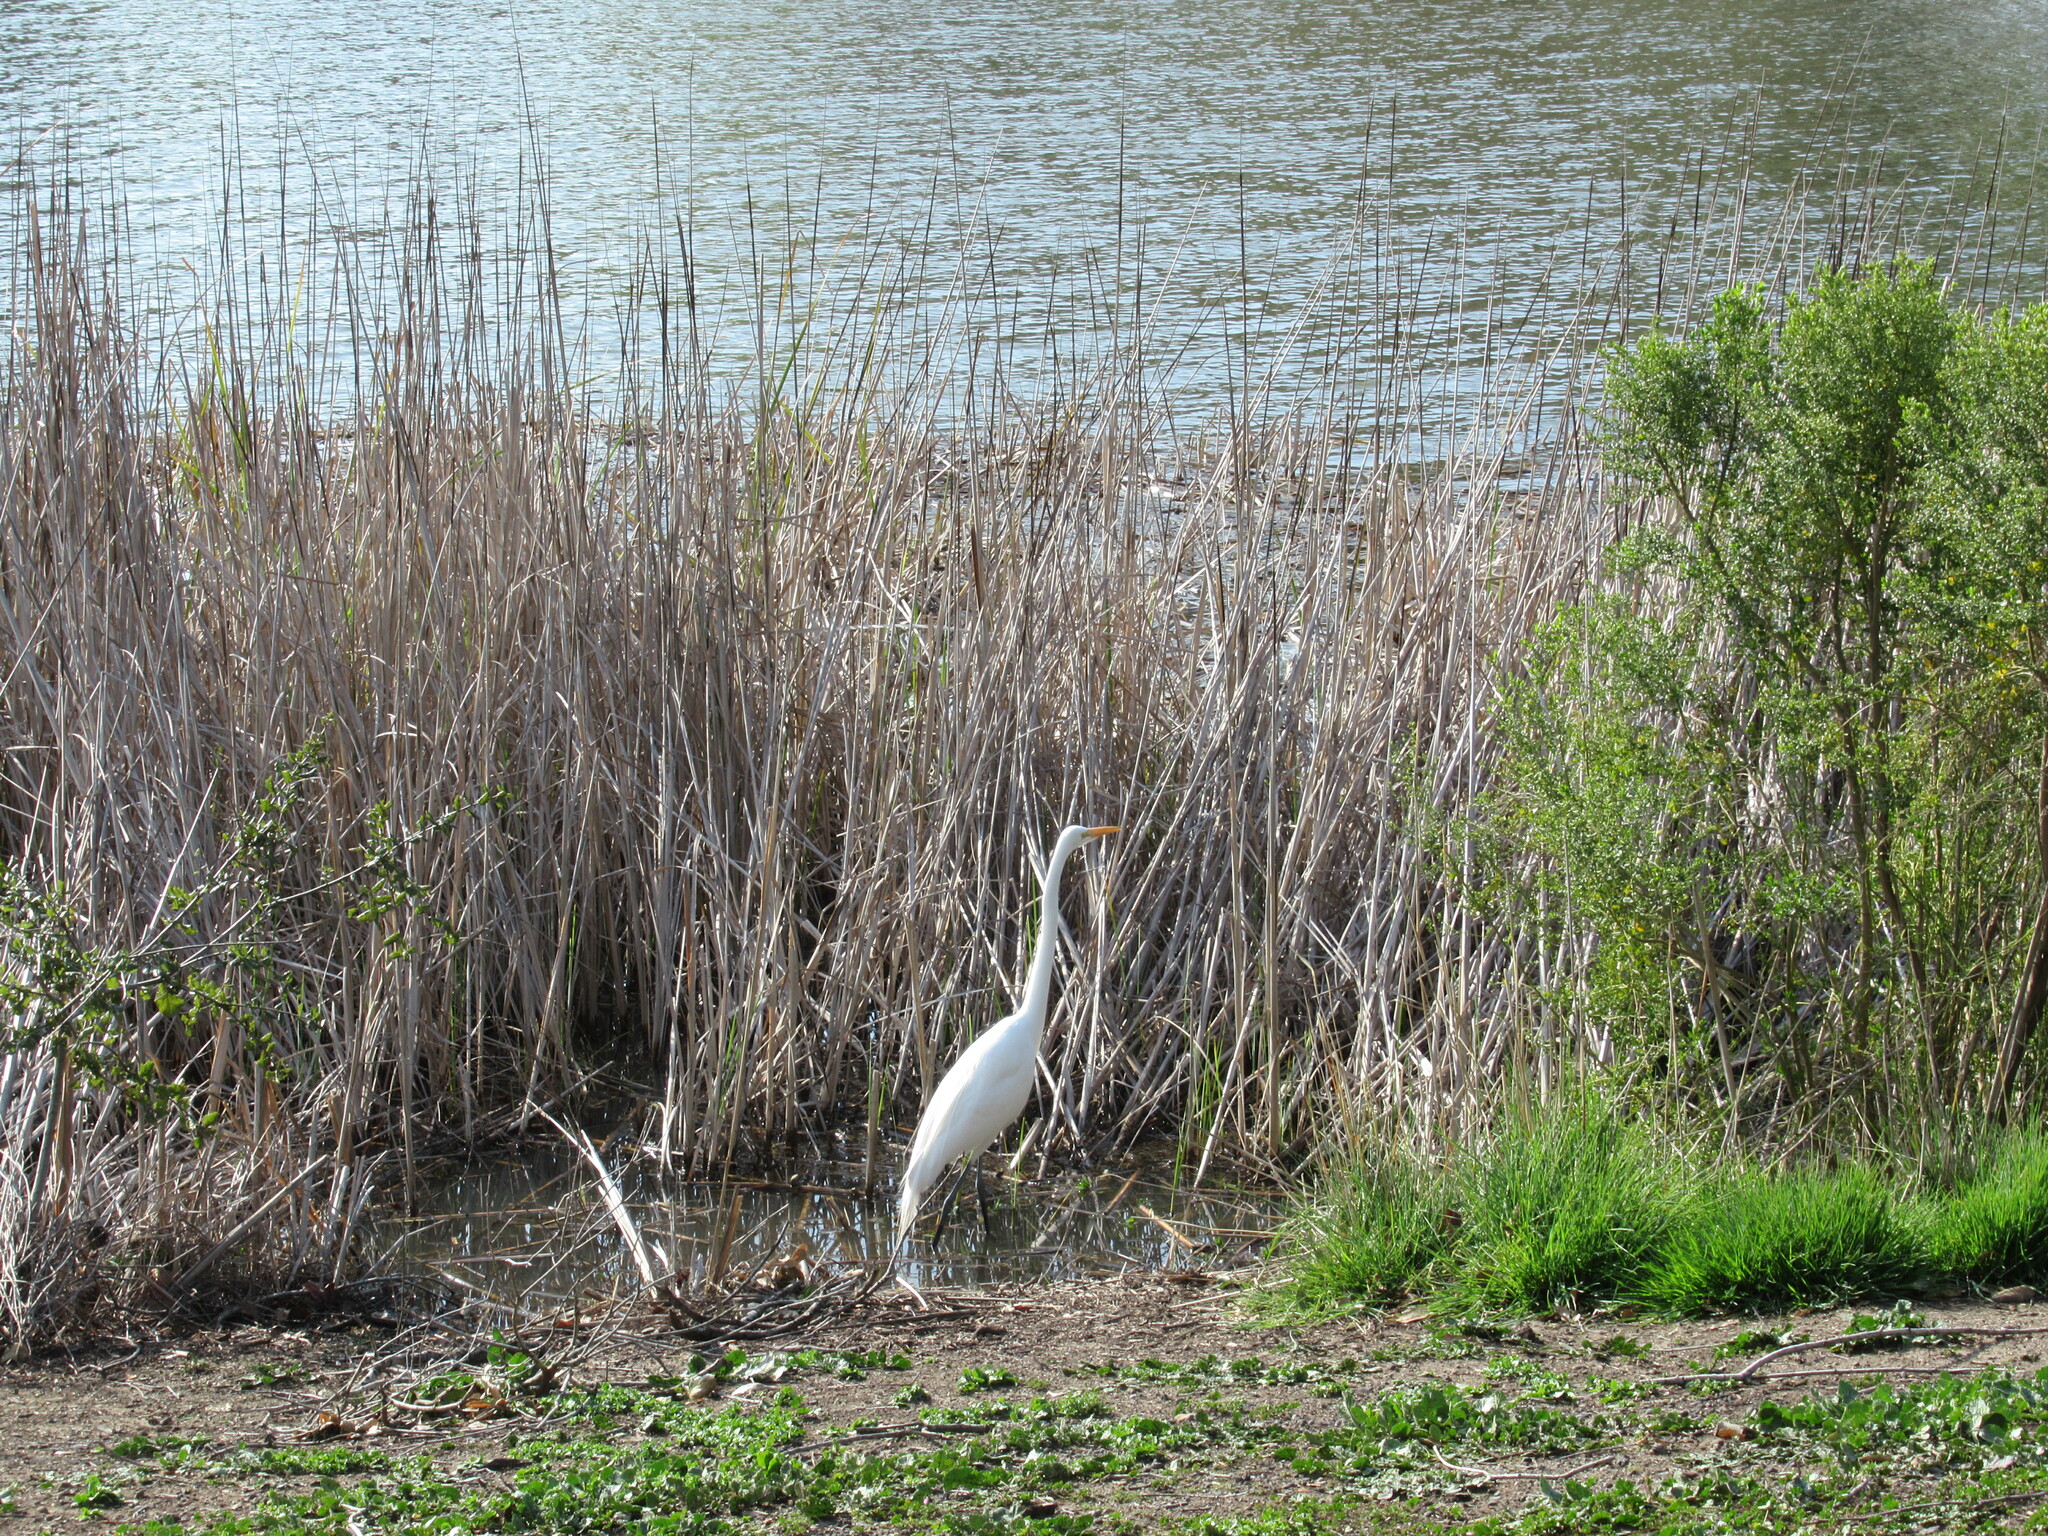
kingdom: Animalia
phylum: Chordata
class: Aves
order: Pelecaniformes
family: Ardeidae
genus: Ardea
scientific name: Ardea alba
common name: Great egret
